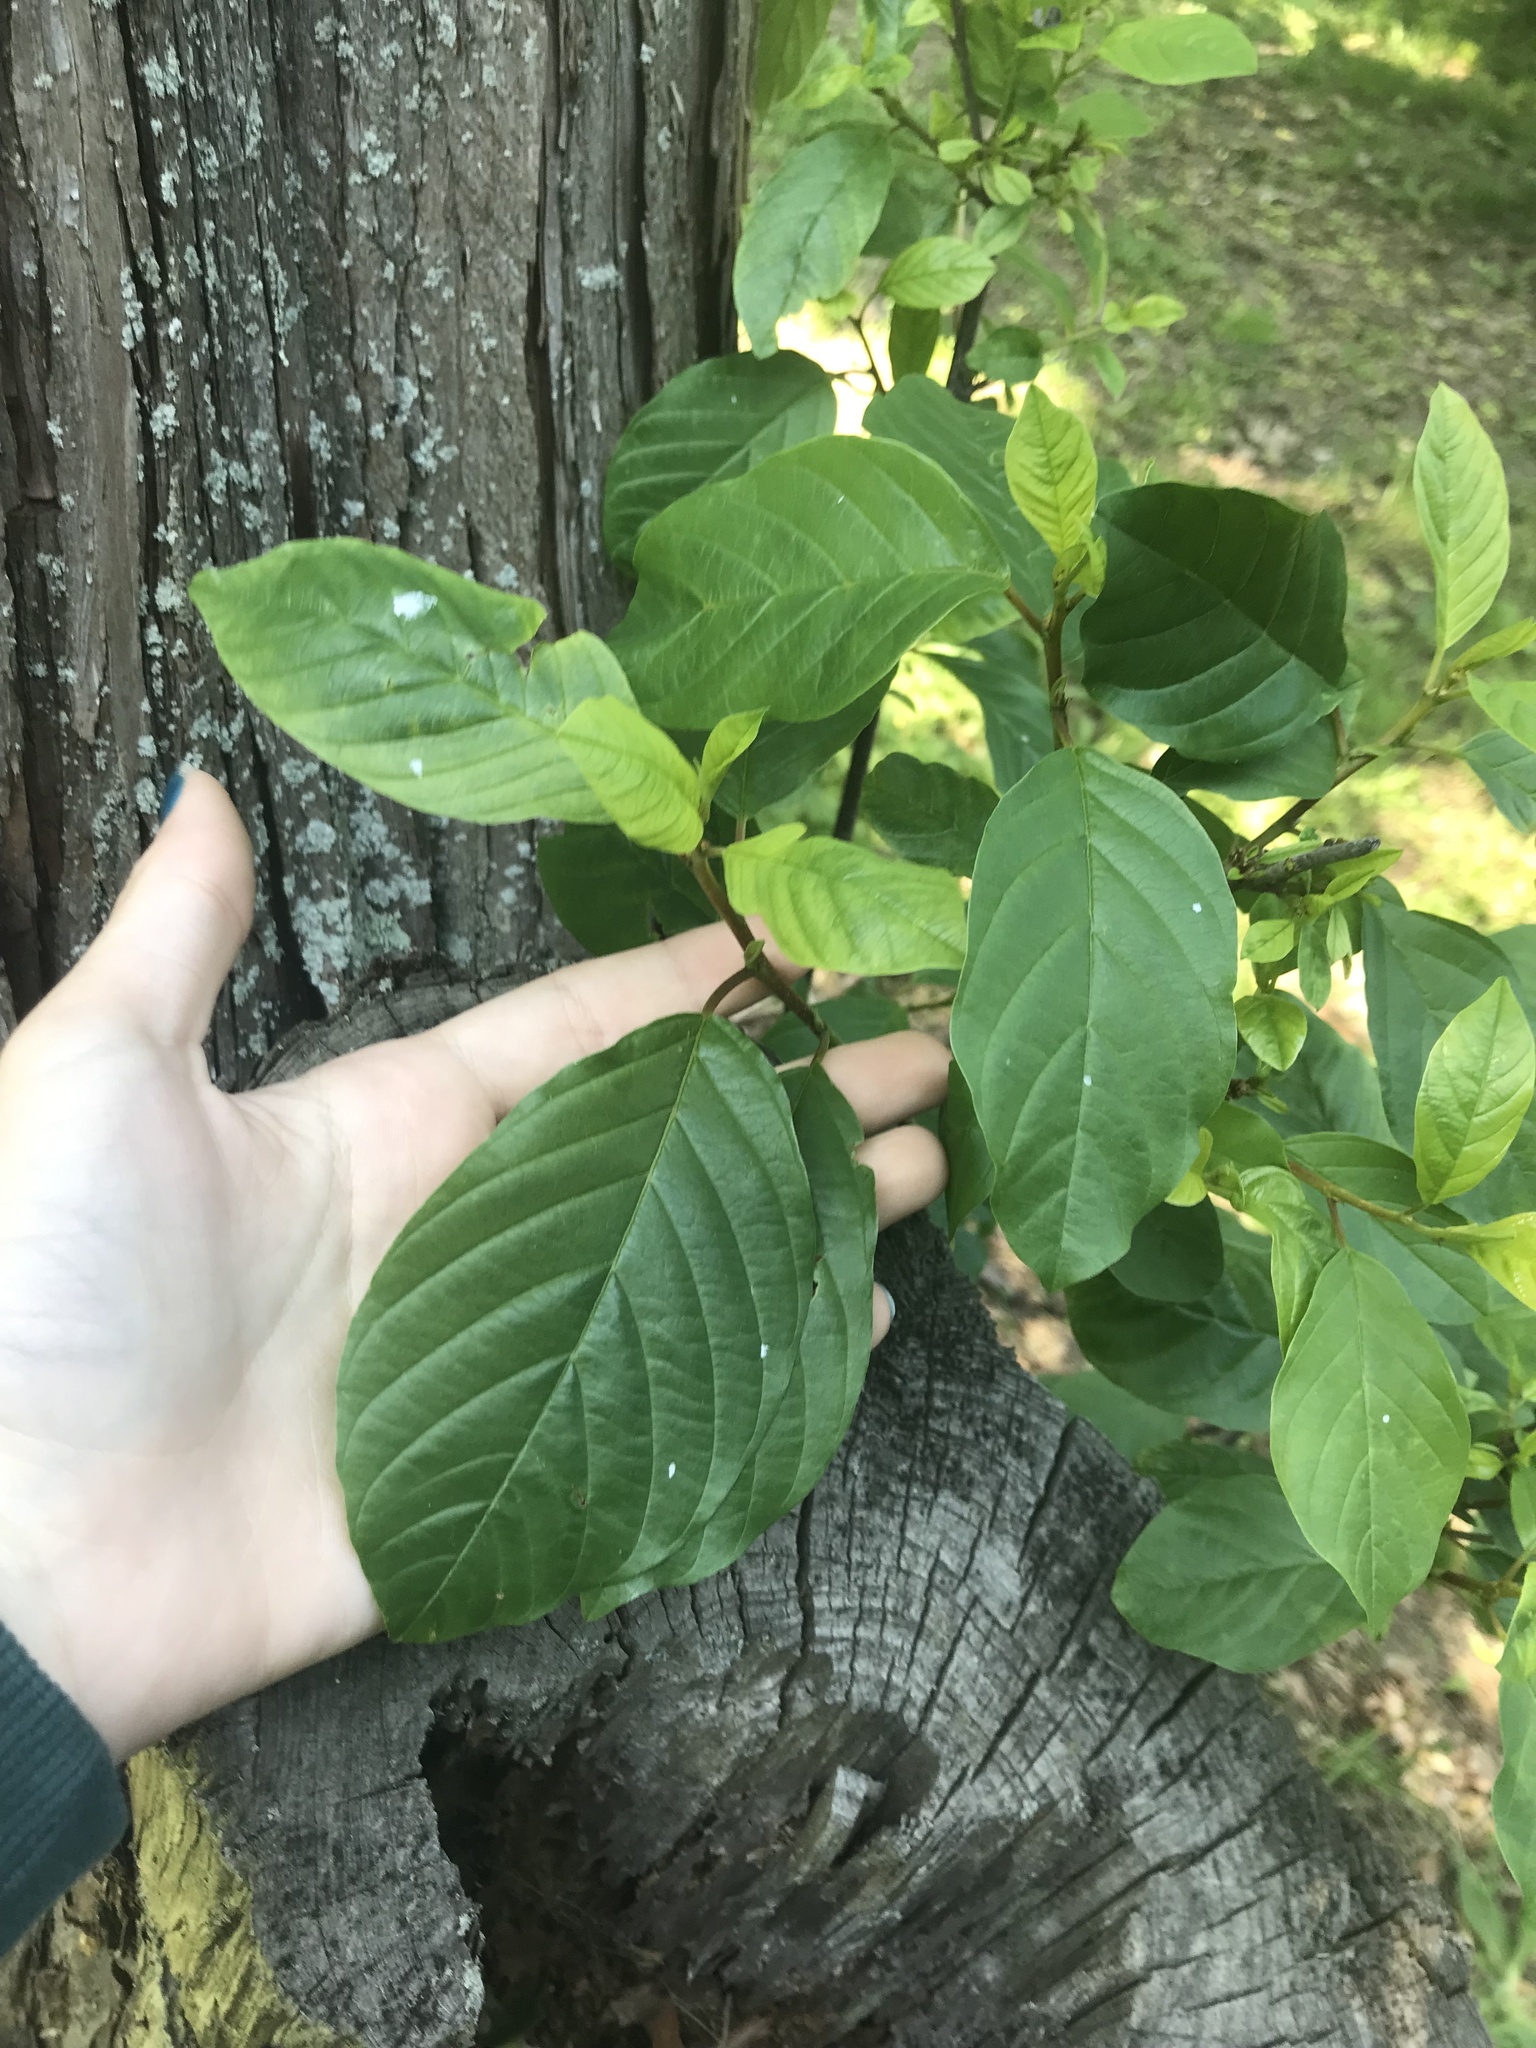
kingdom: Plantae
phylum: Tracheophyta
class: Magnoliopsida
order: Rosales
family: Rhamnaceae
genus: Frangula
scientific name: Frangula alnus
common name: Alder buckthorn
